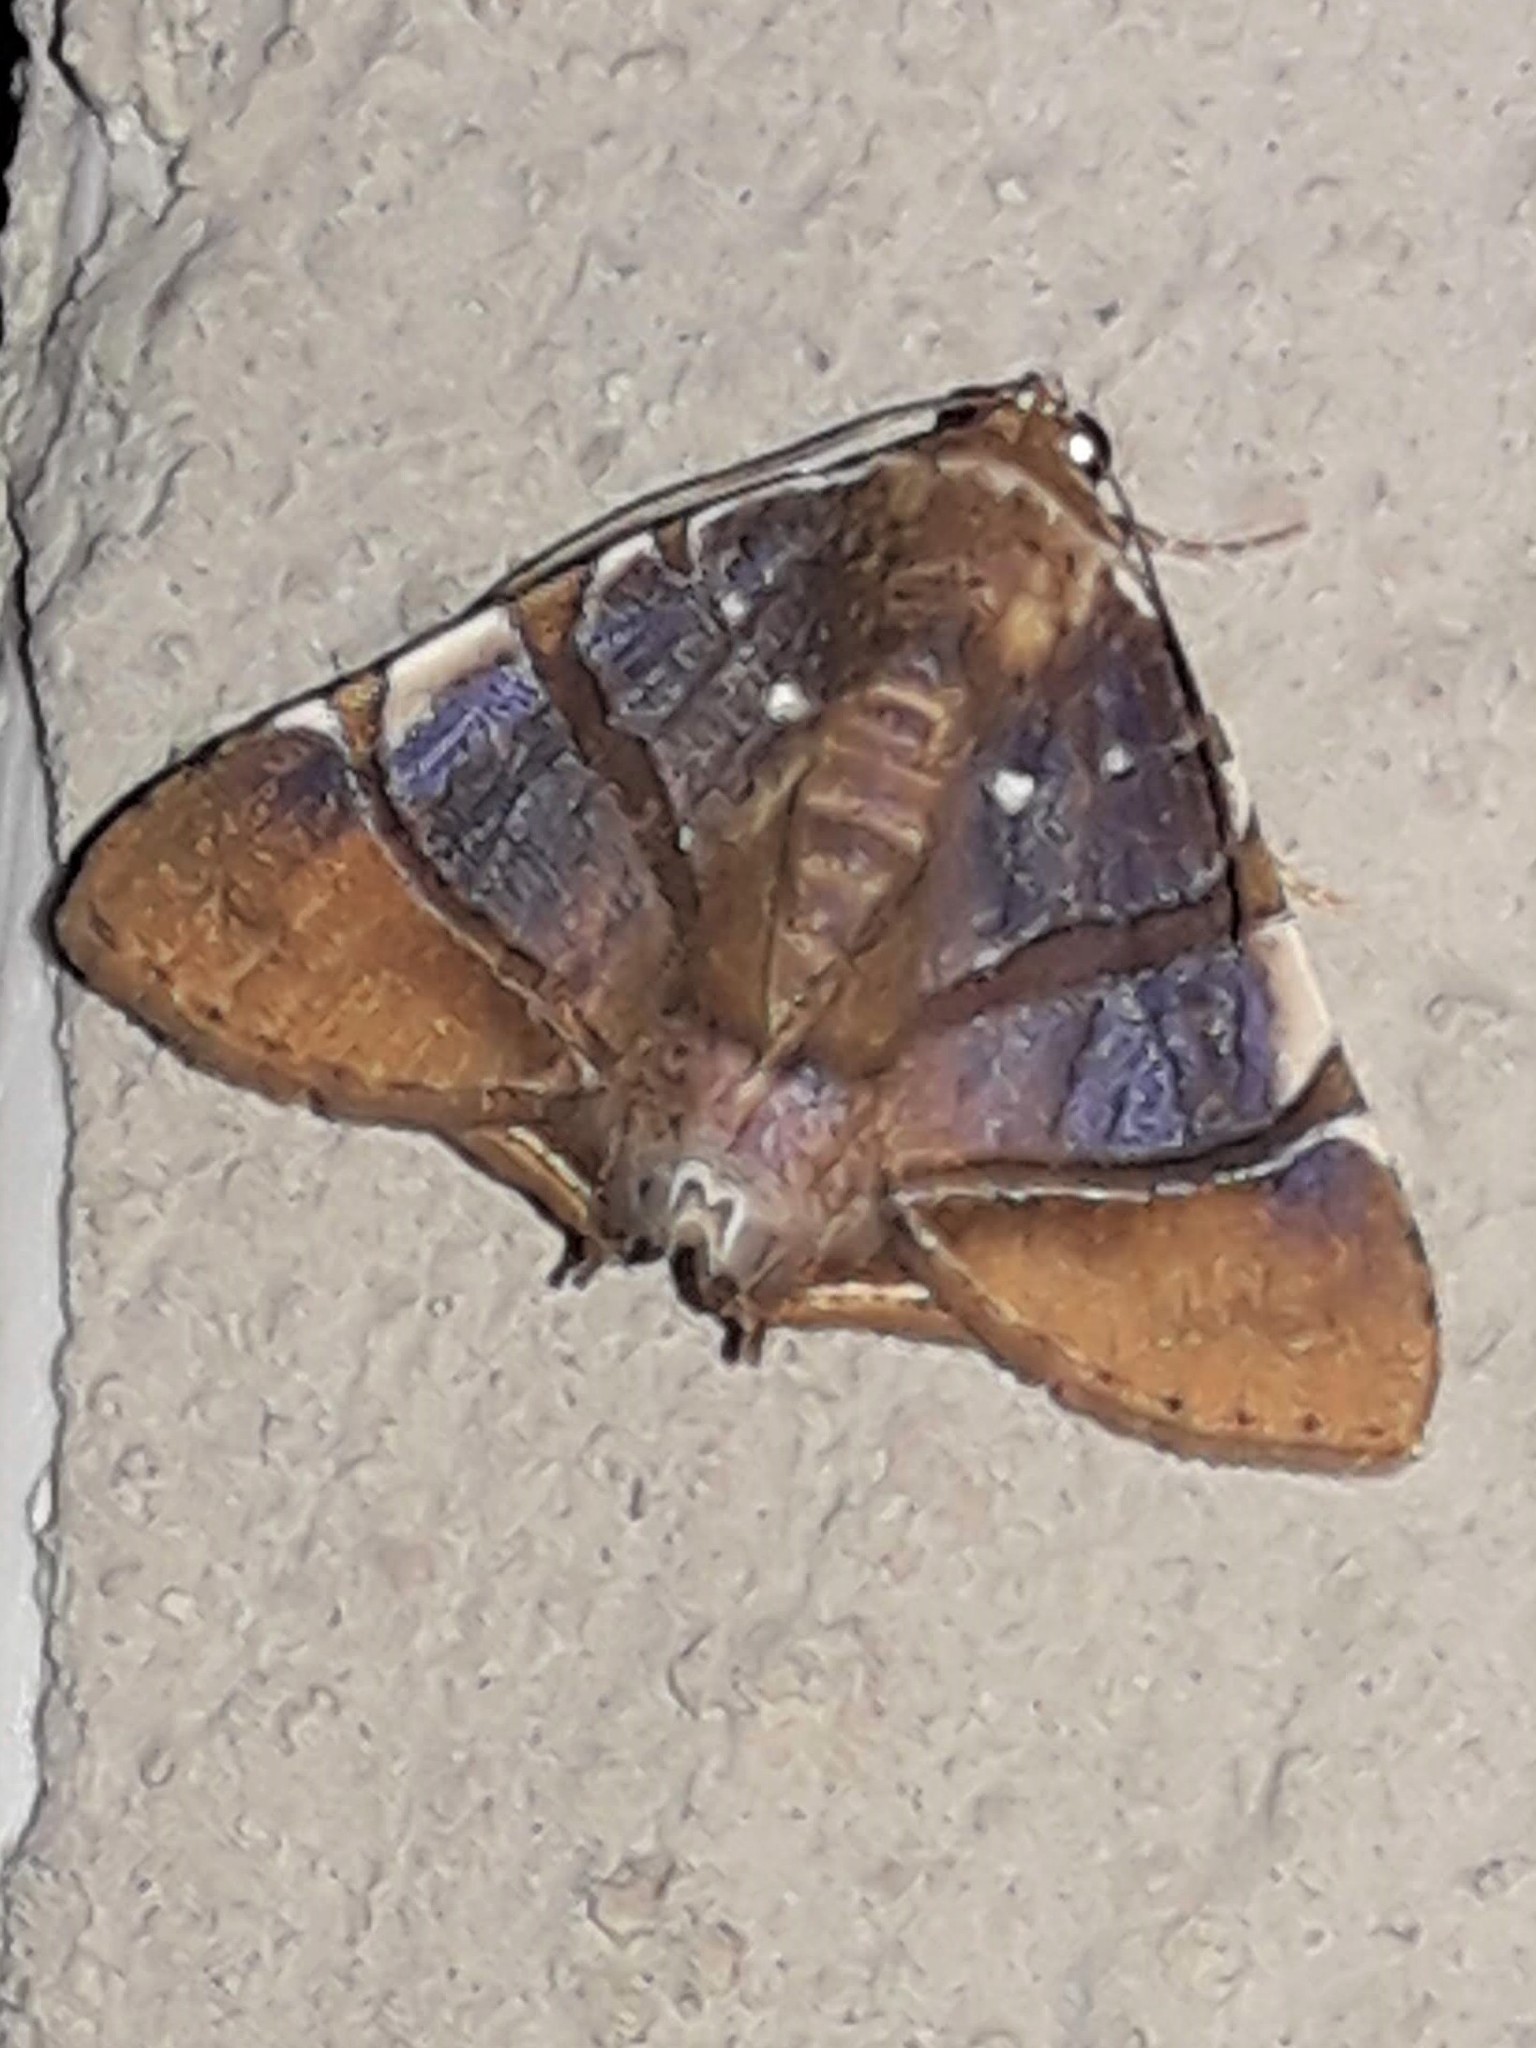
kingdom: Animalia
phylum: Arthropoda
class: Insecta
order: Lepidoptera
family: Erebidae
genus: Eulepidotis
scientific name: Eulepidotis ezra
